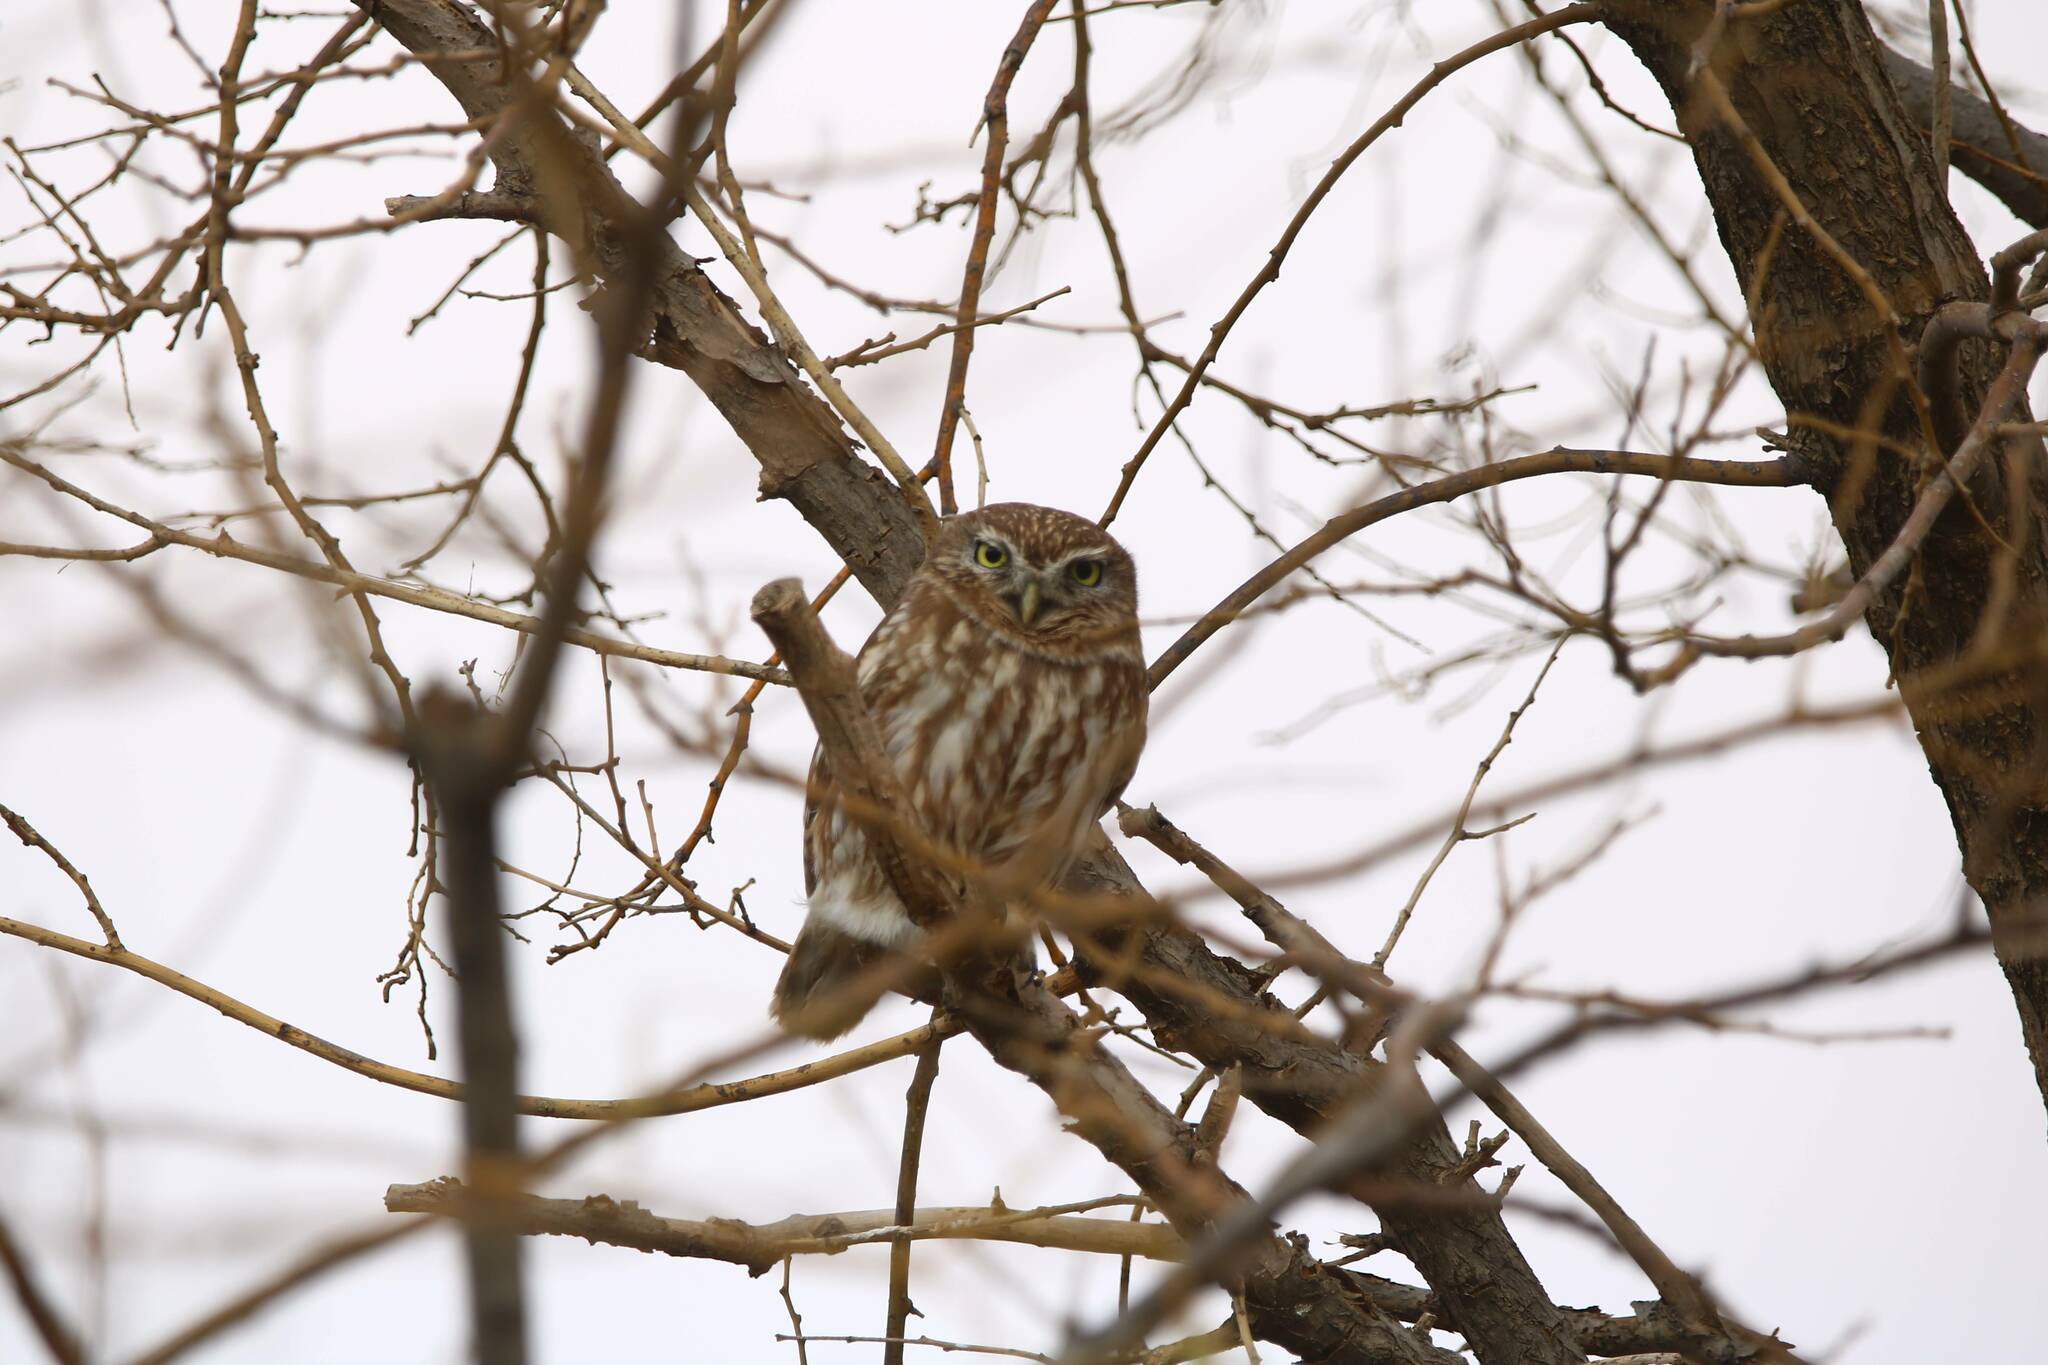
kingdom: Animalia
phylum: Chordata
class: Aves
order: Strigiformes
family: Strigidae
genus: Athene
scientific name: Athene noctua
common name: Little owl
